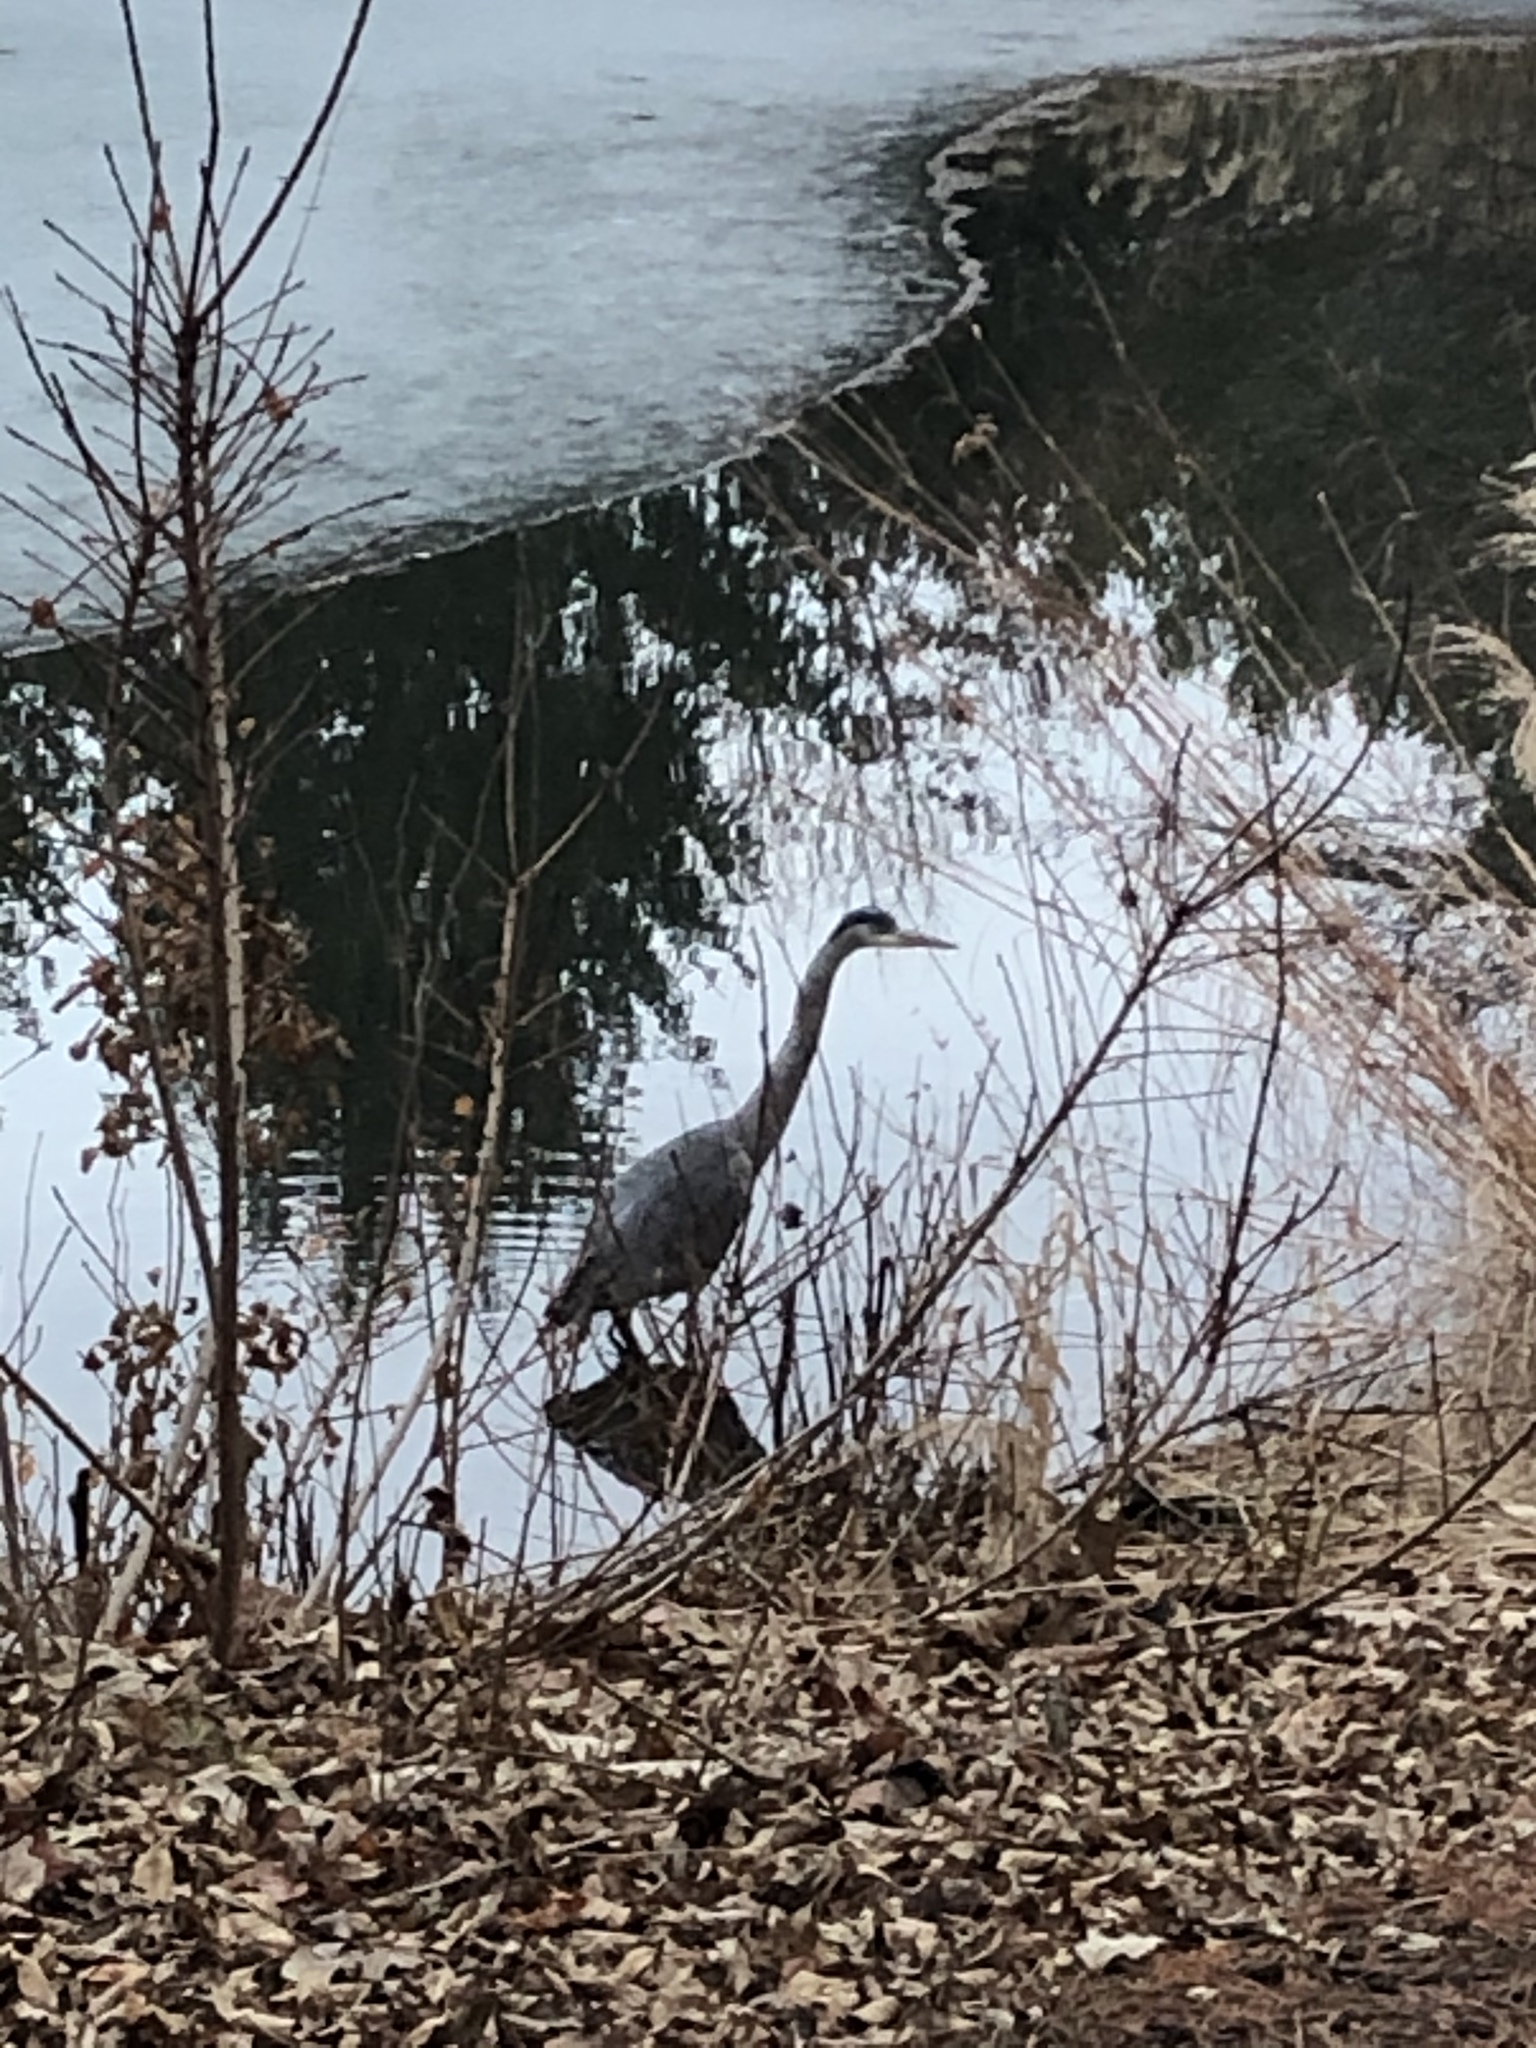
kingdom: Animalia
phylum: Chordata
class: Aves
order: Pelecaniformes
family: Ardeidae
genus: Ardea
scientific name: Ardea herodias
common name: Great blue heron
